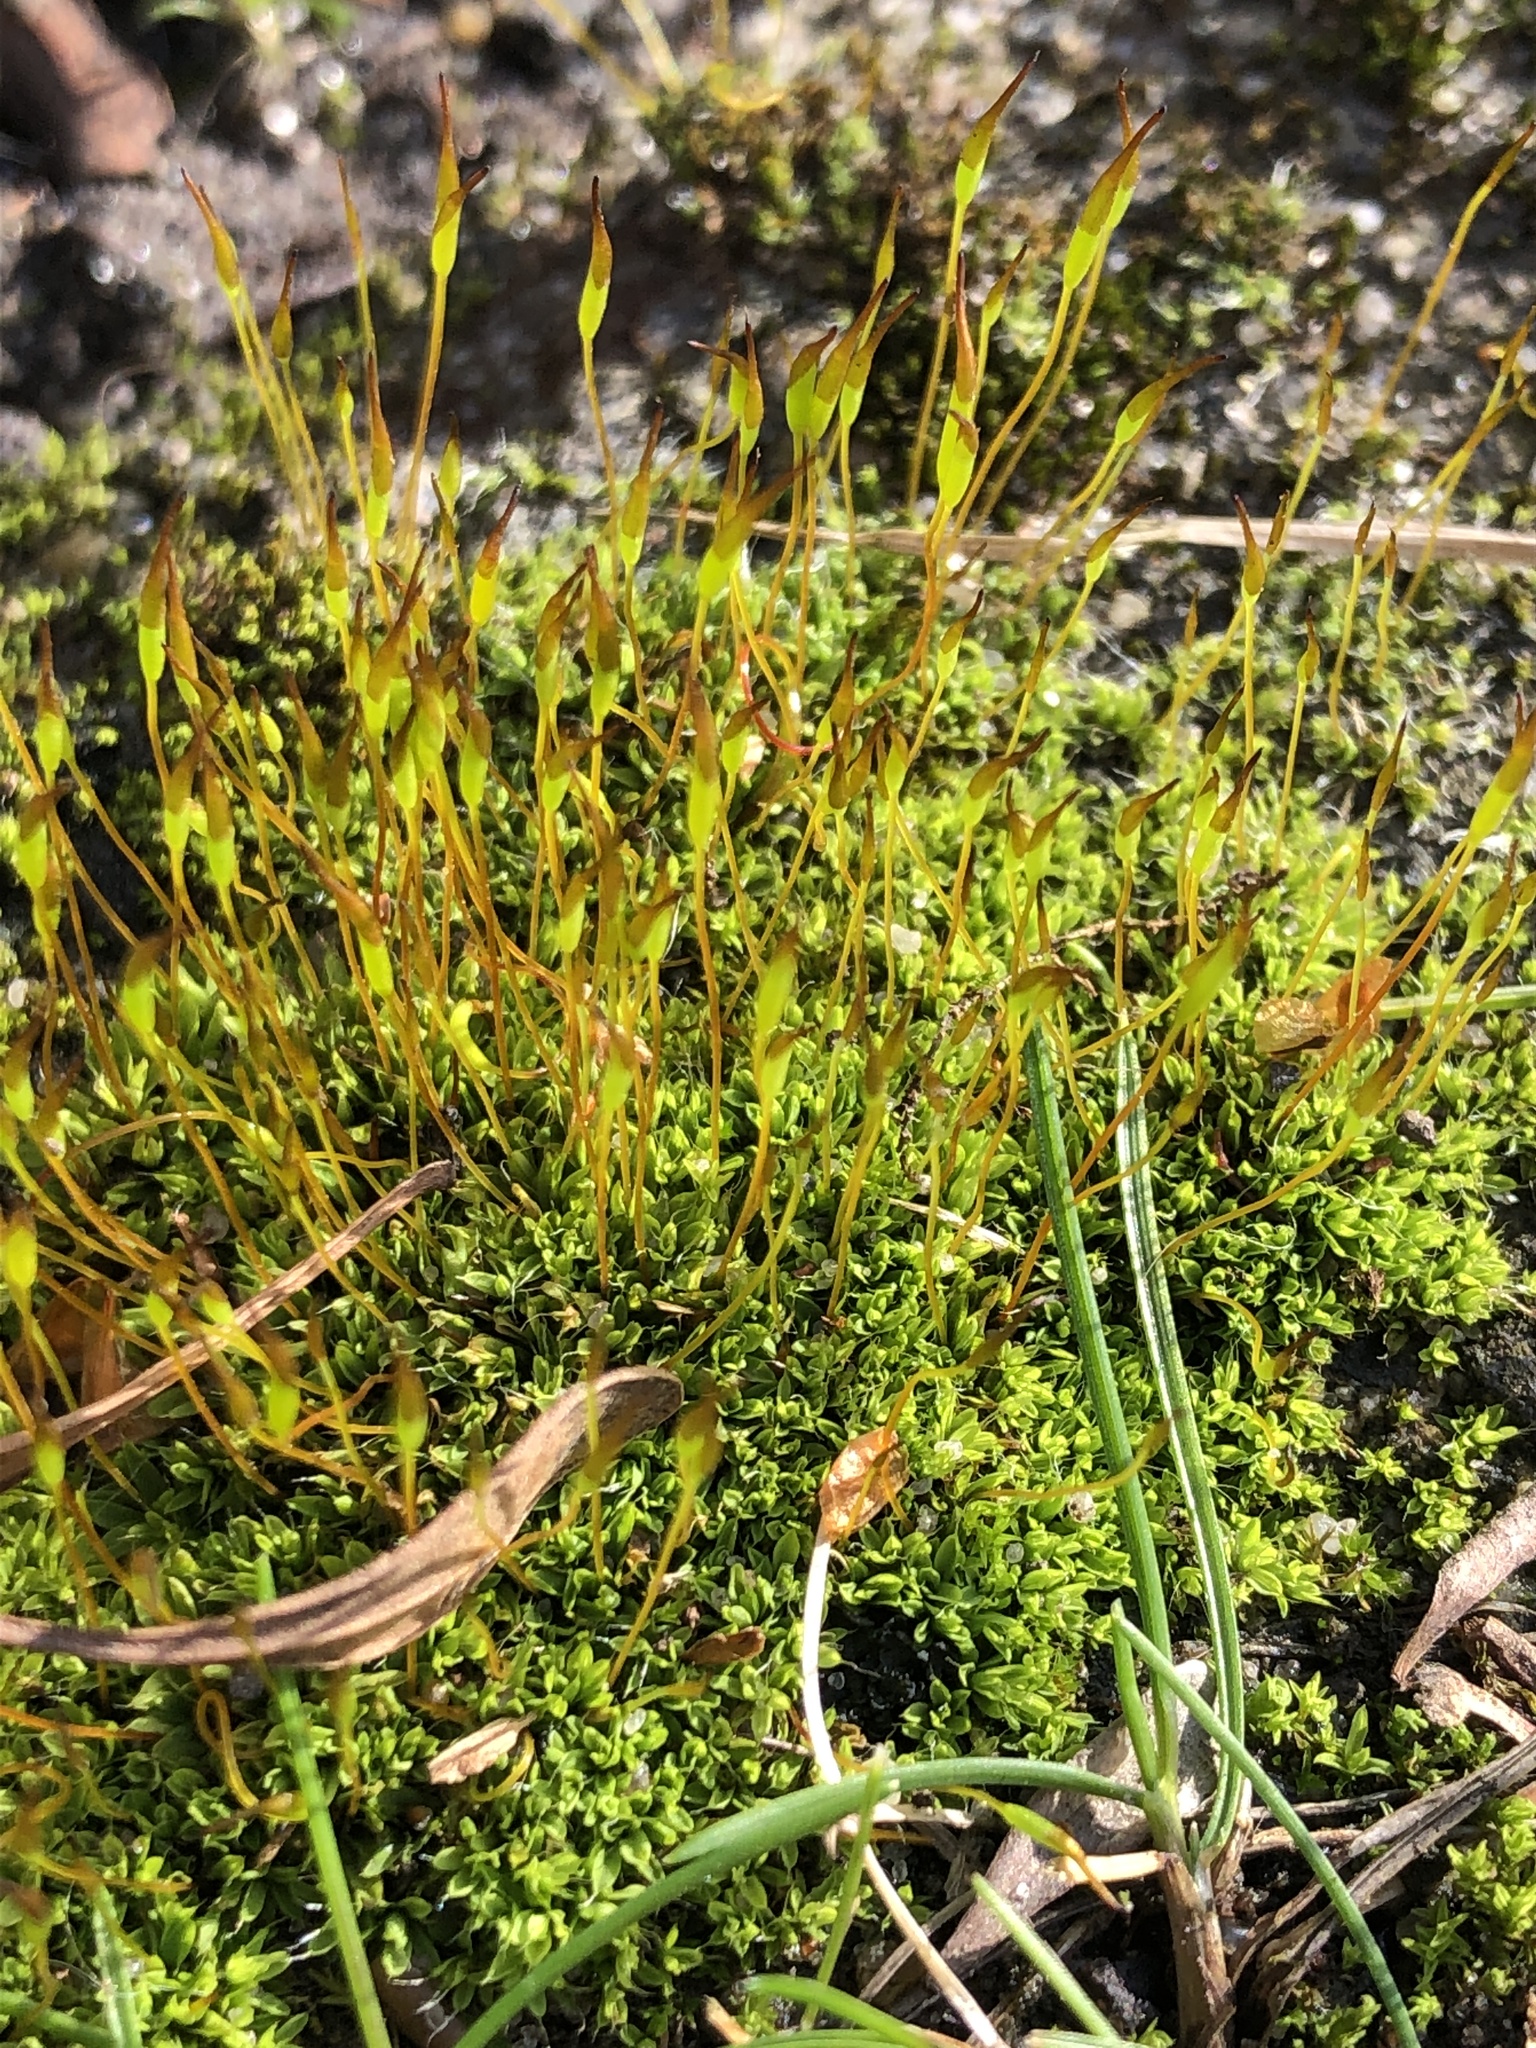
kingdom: Plantae
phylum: Bryophyta
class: Bryopsida
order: Pottiales
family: Pottiaceae
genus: Tortula
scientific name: Tortula muralis
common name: Wall screw-moss
